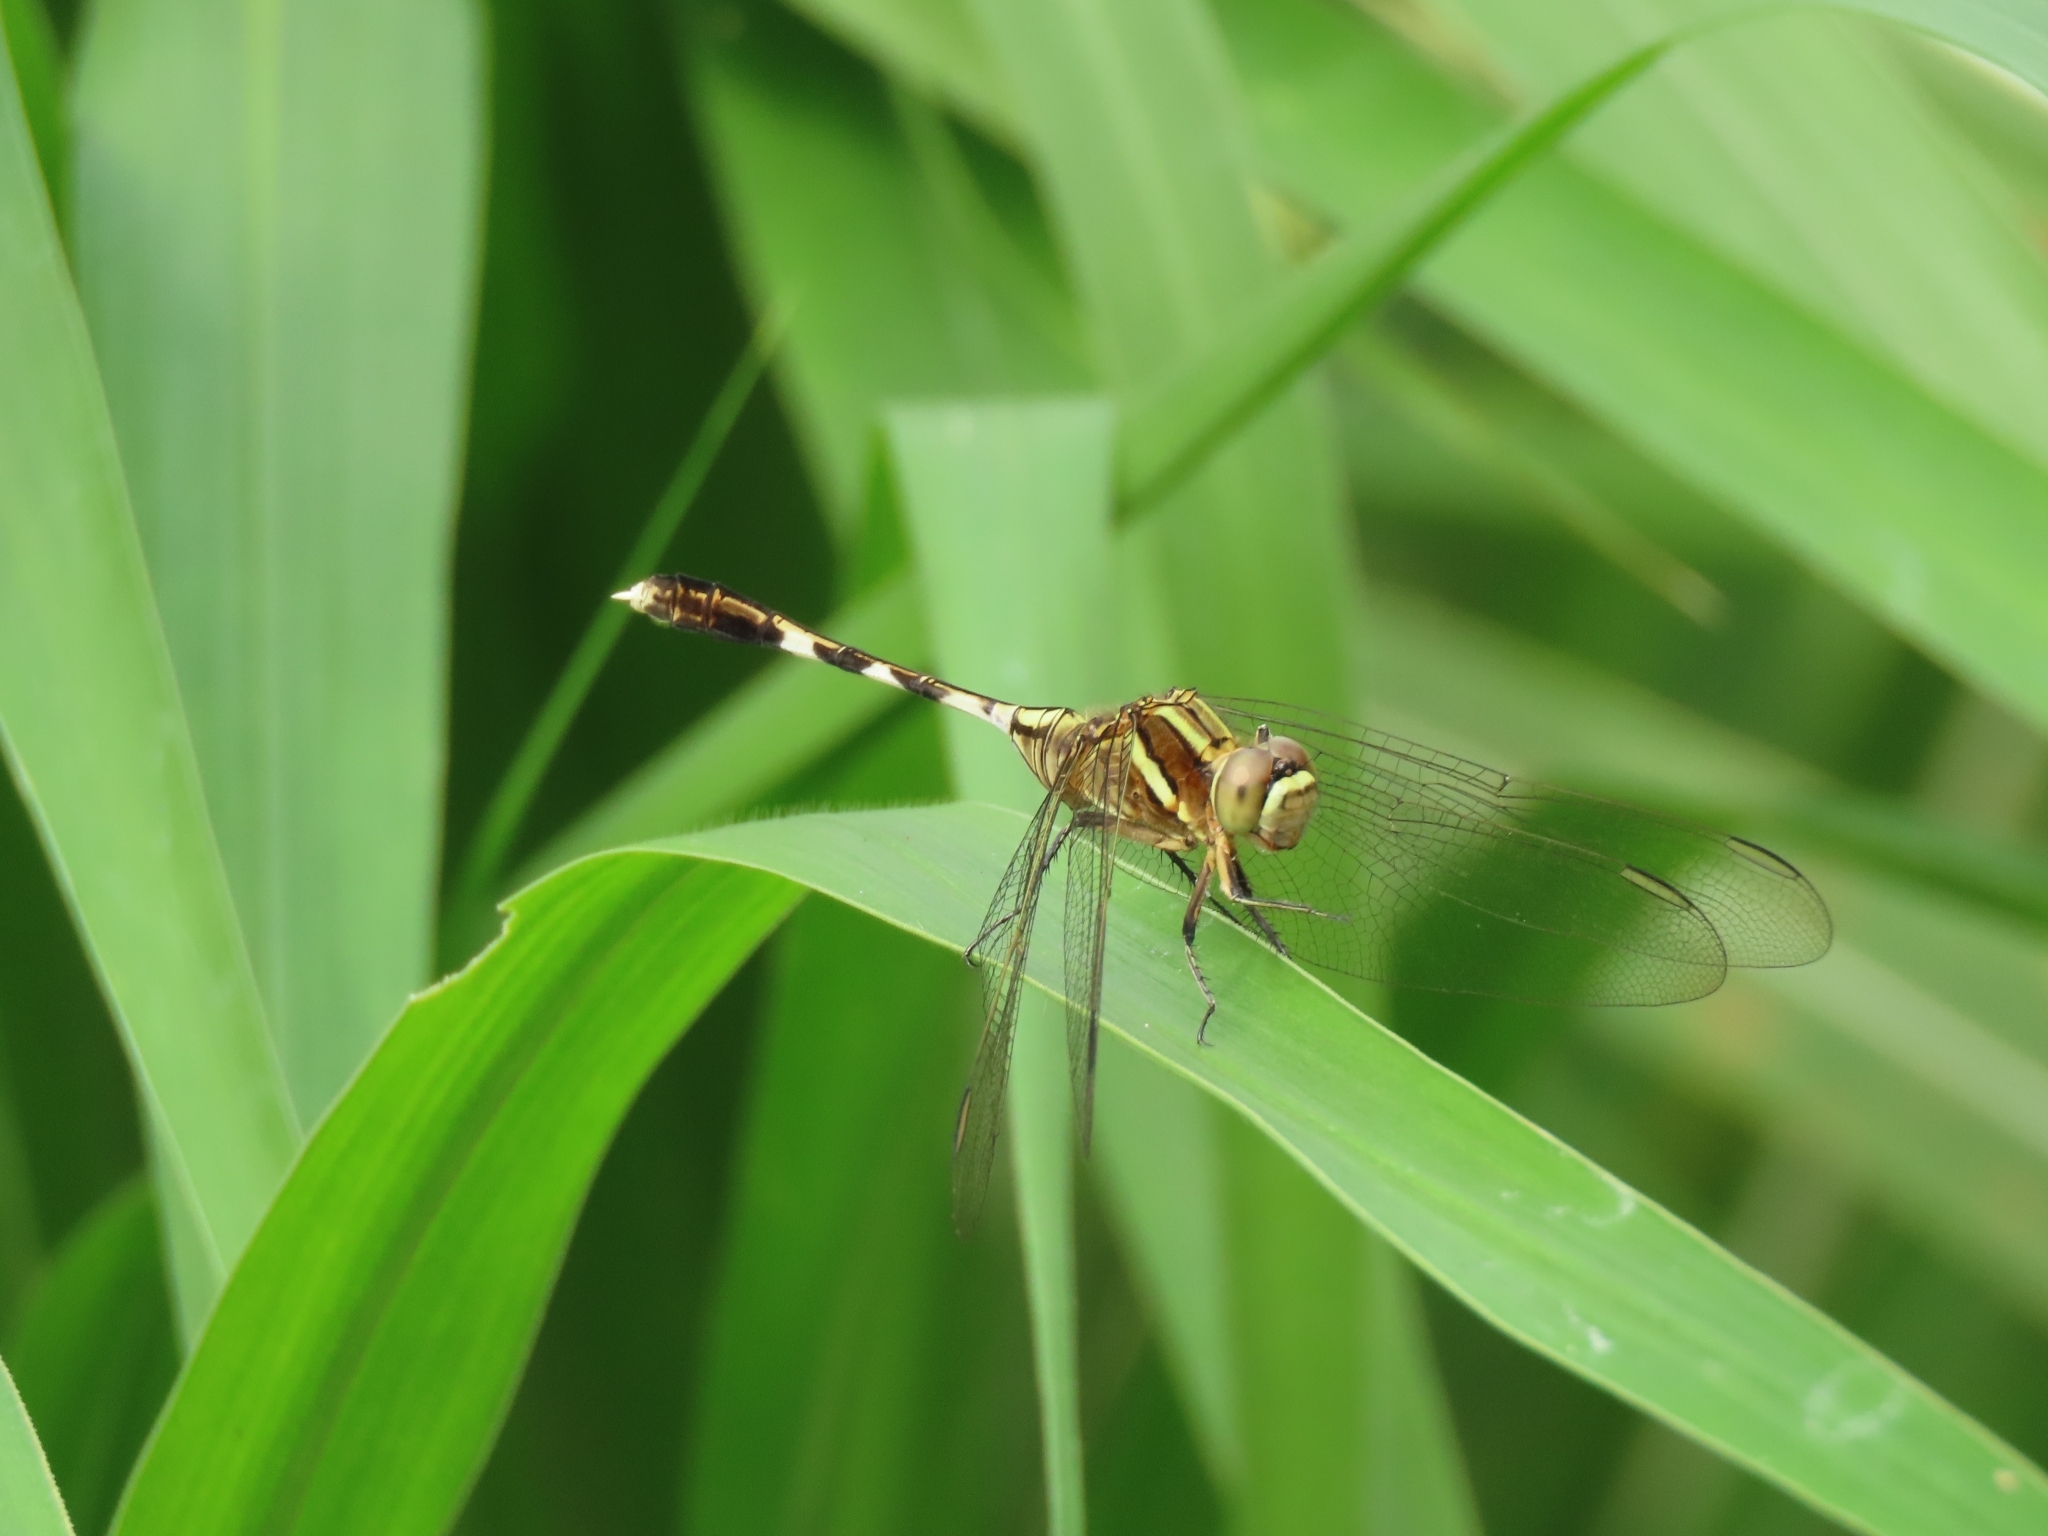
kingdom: Animalia
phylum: Arthropoda
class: Insecta
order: Odonata
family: Libellulidae
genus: Orthetrum
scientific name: Orthetrum sabina
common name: Slender skimmer
